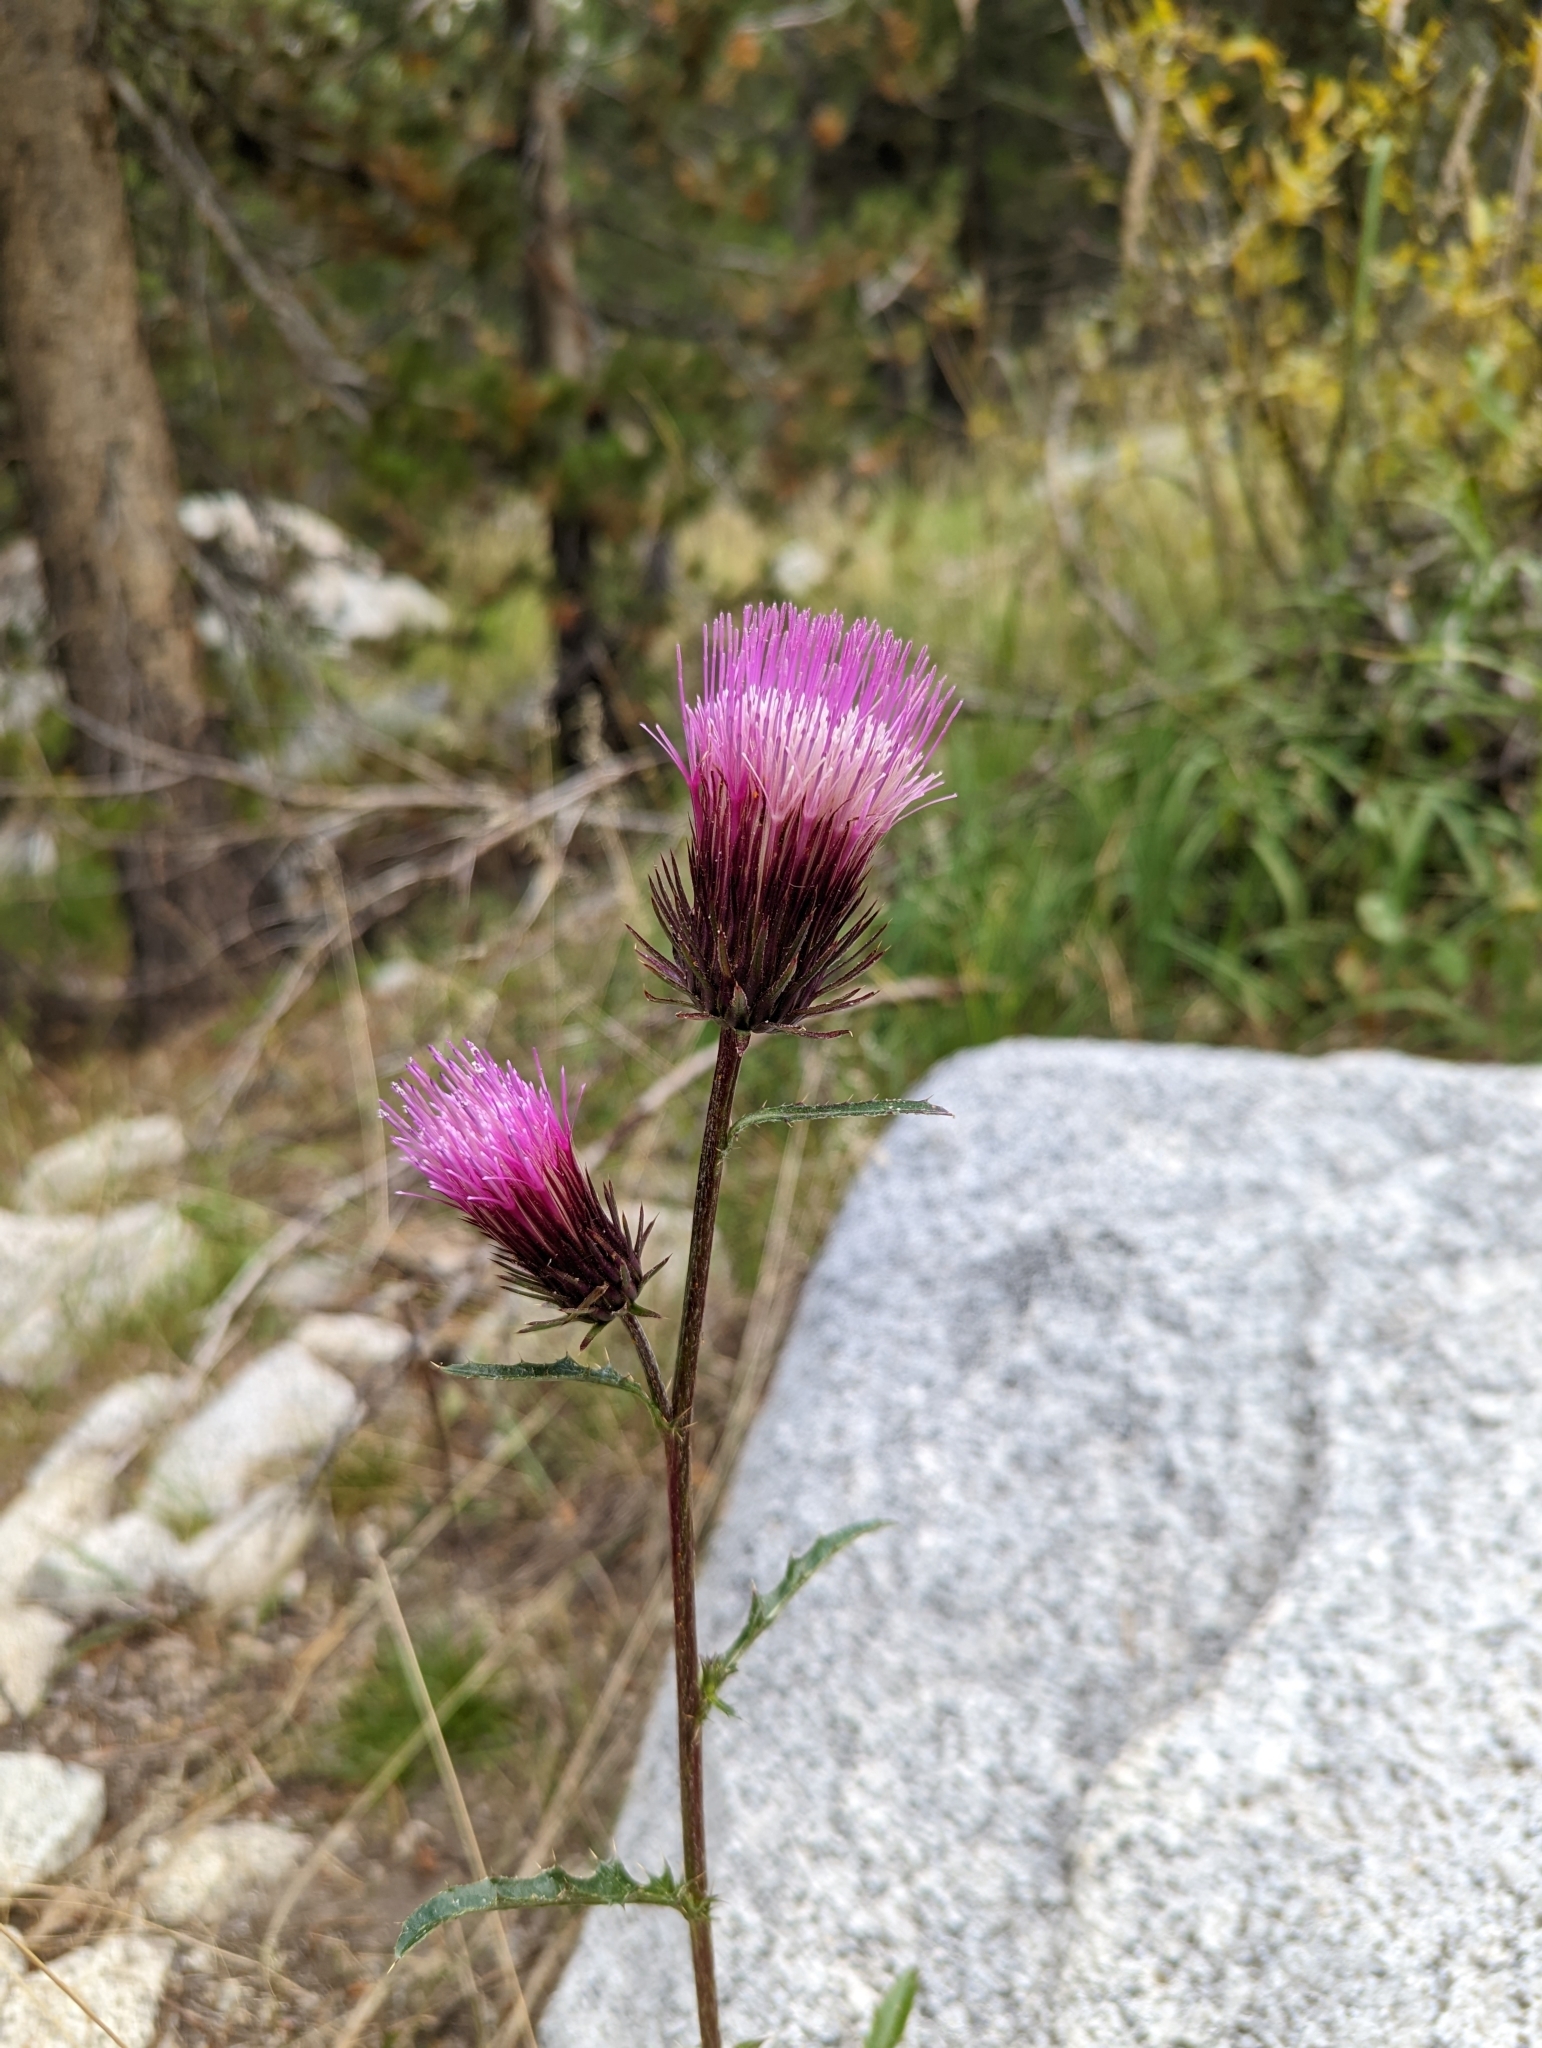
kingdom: Plantae
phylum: Tracheophyta
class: Magnoliopsida
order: Asterales
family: Asteraceae
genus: Cirsium
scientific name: Cirsium andersonii
